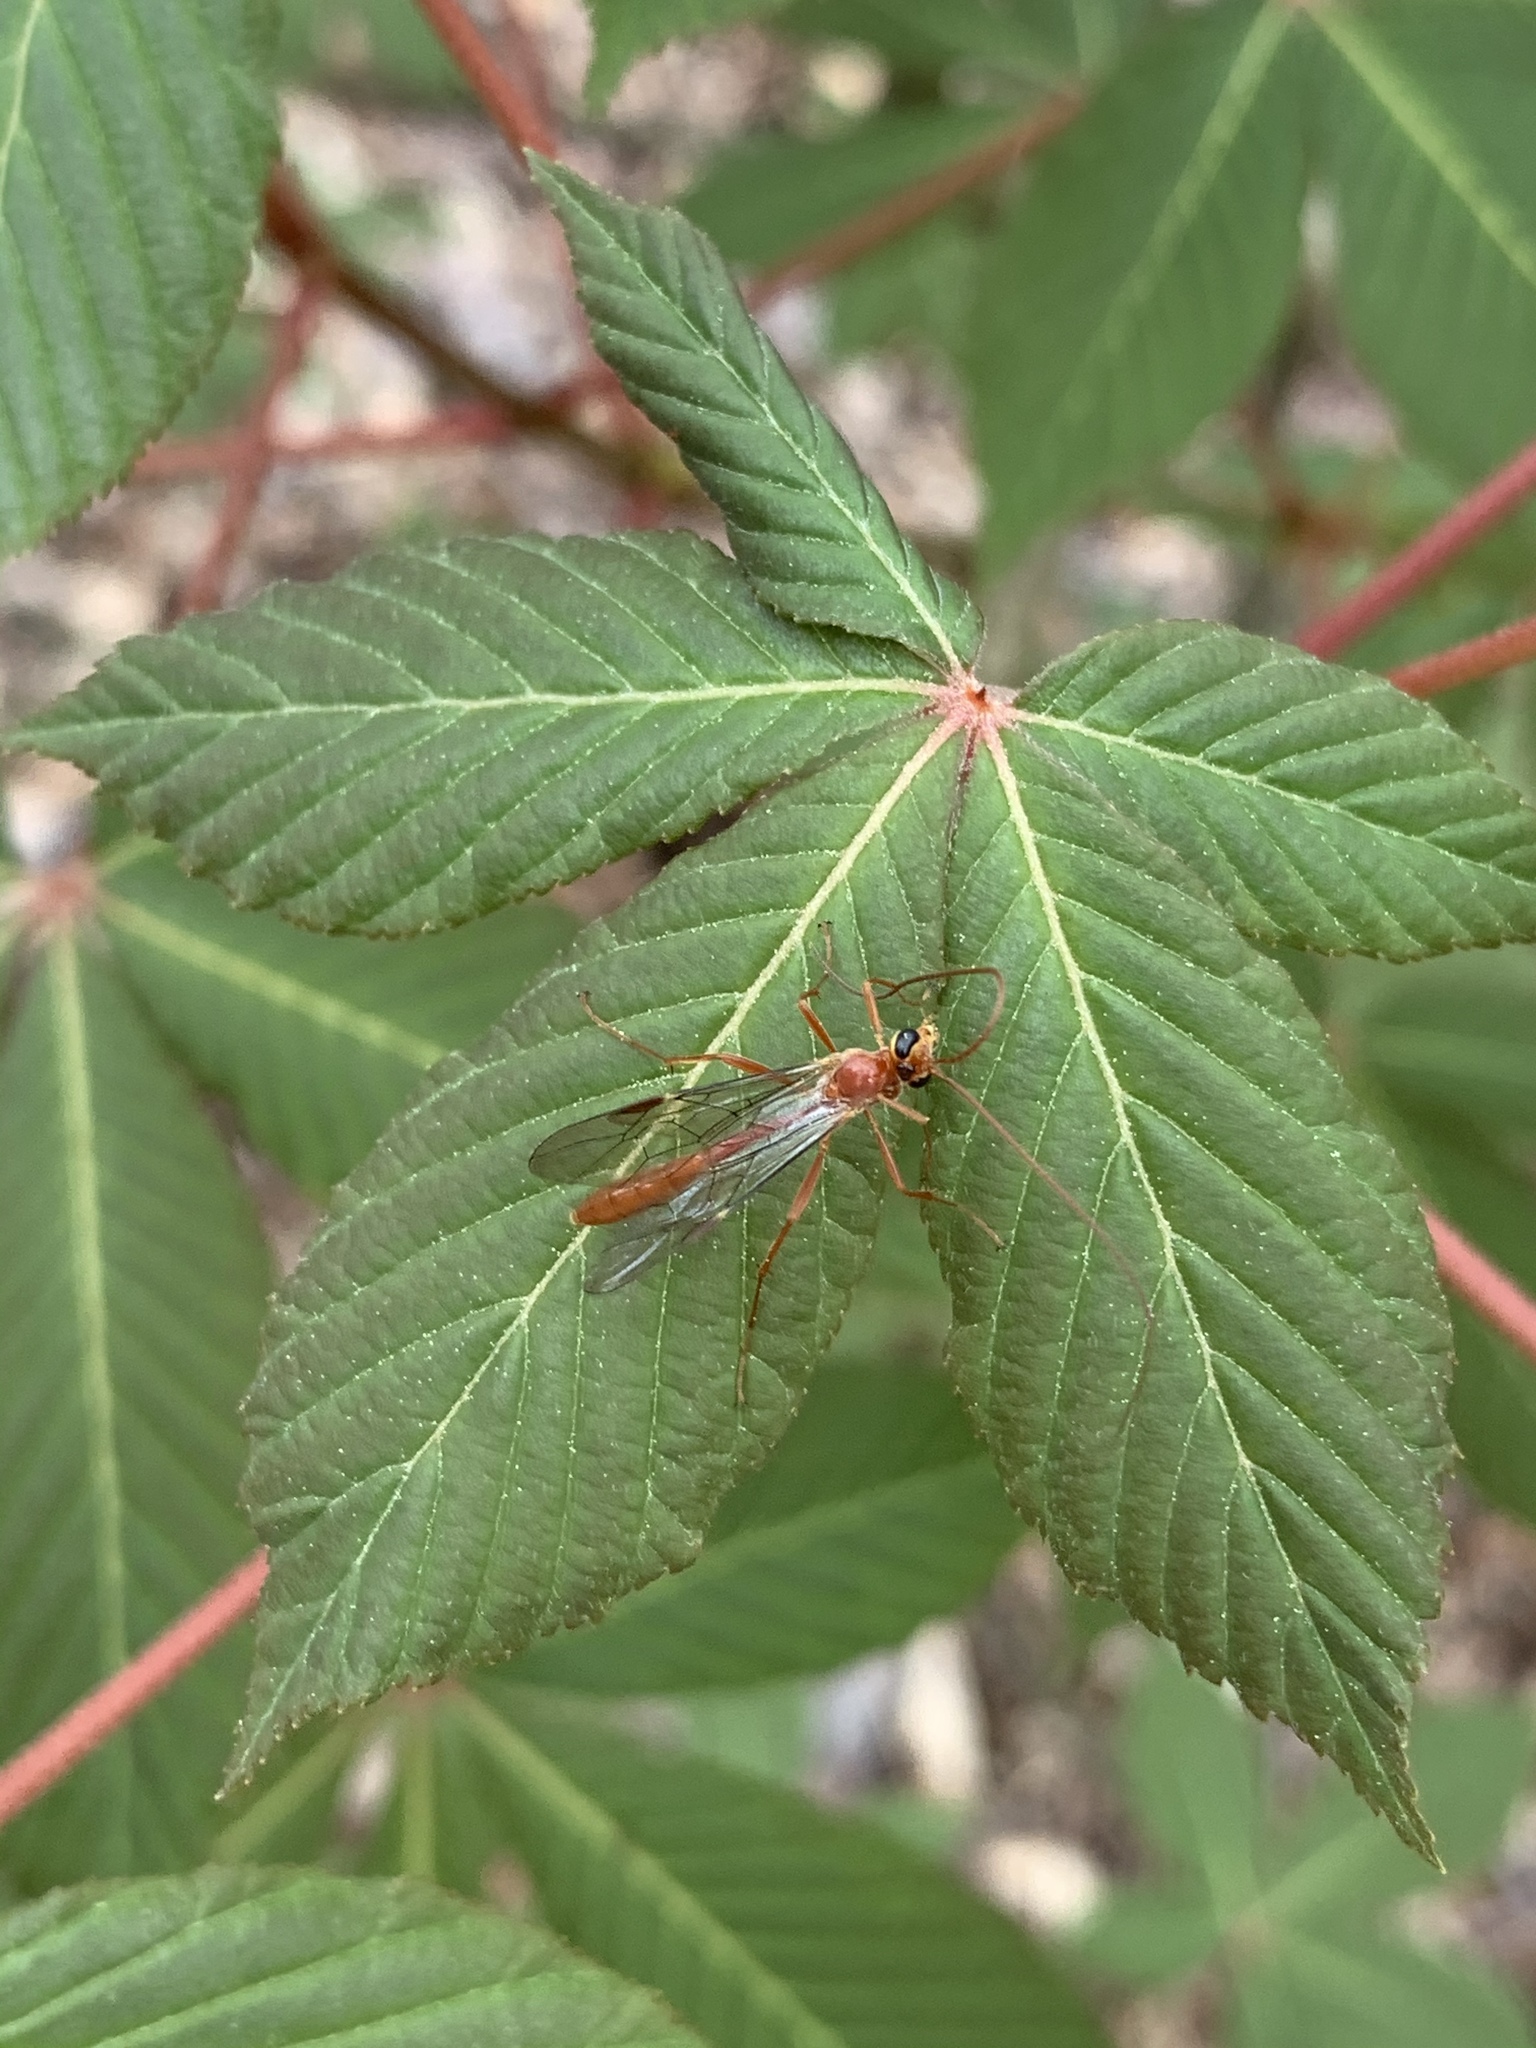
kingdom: Animalia
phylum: Arthropoda
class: Insecta
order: Hymenoptera
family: Ichneumonidae
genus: Ophion
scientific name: Ophion
